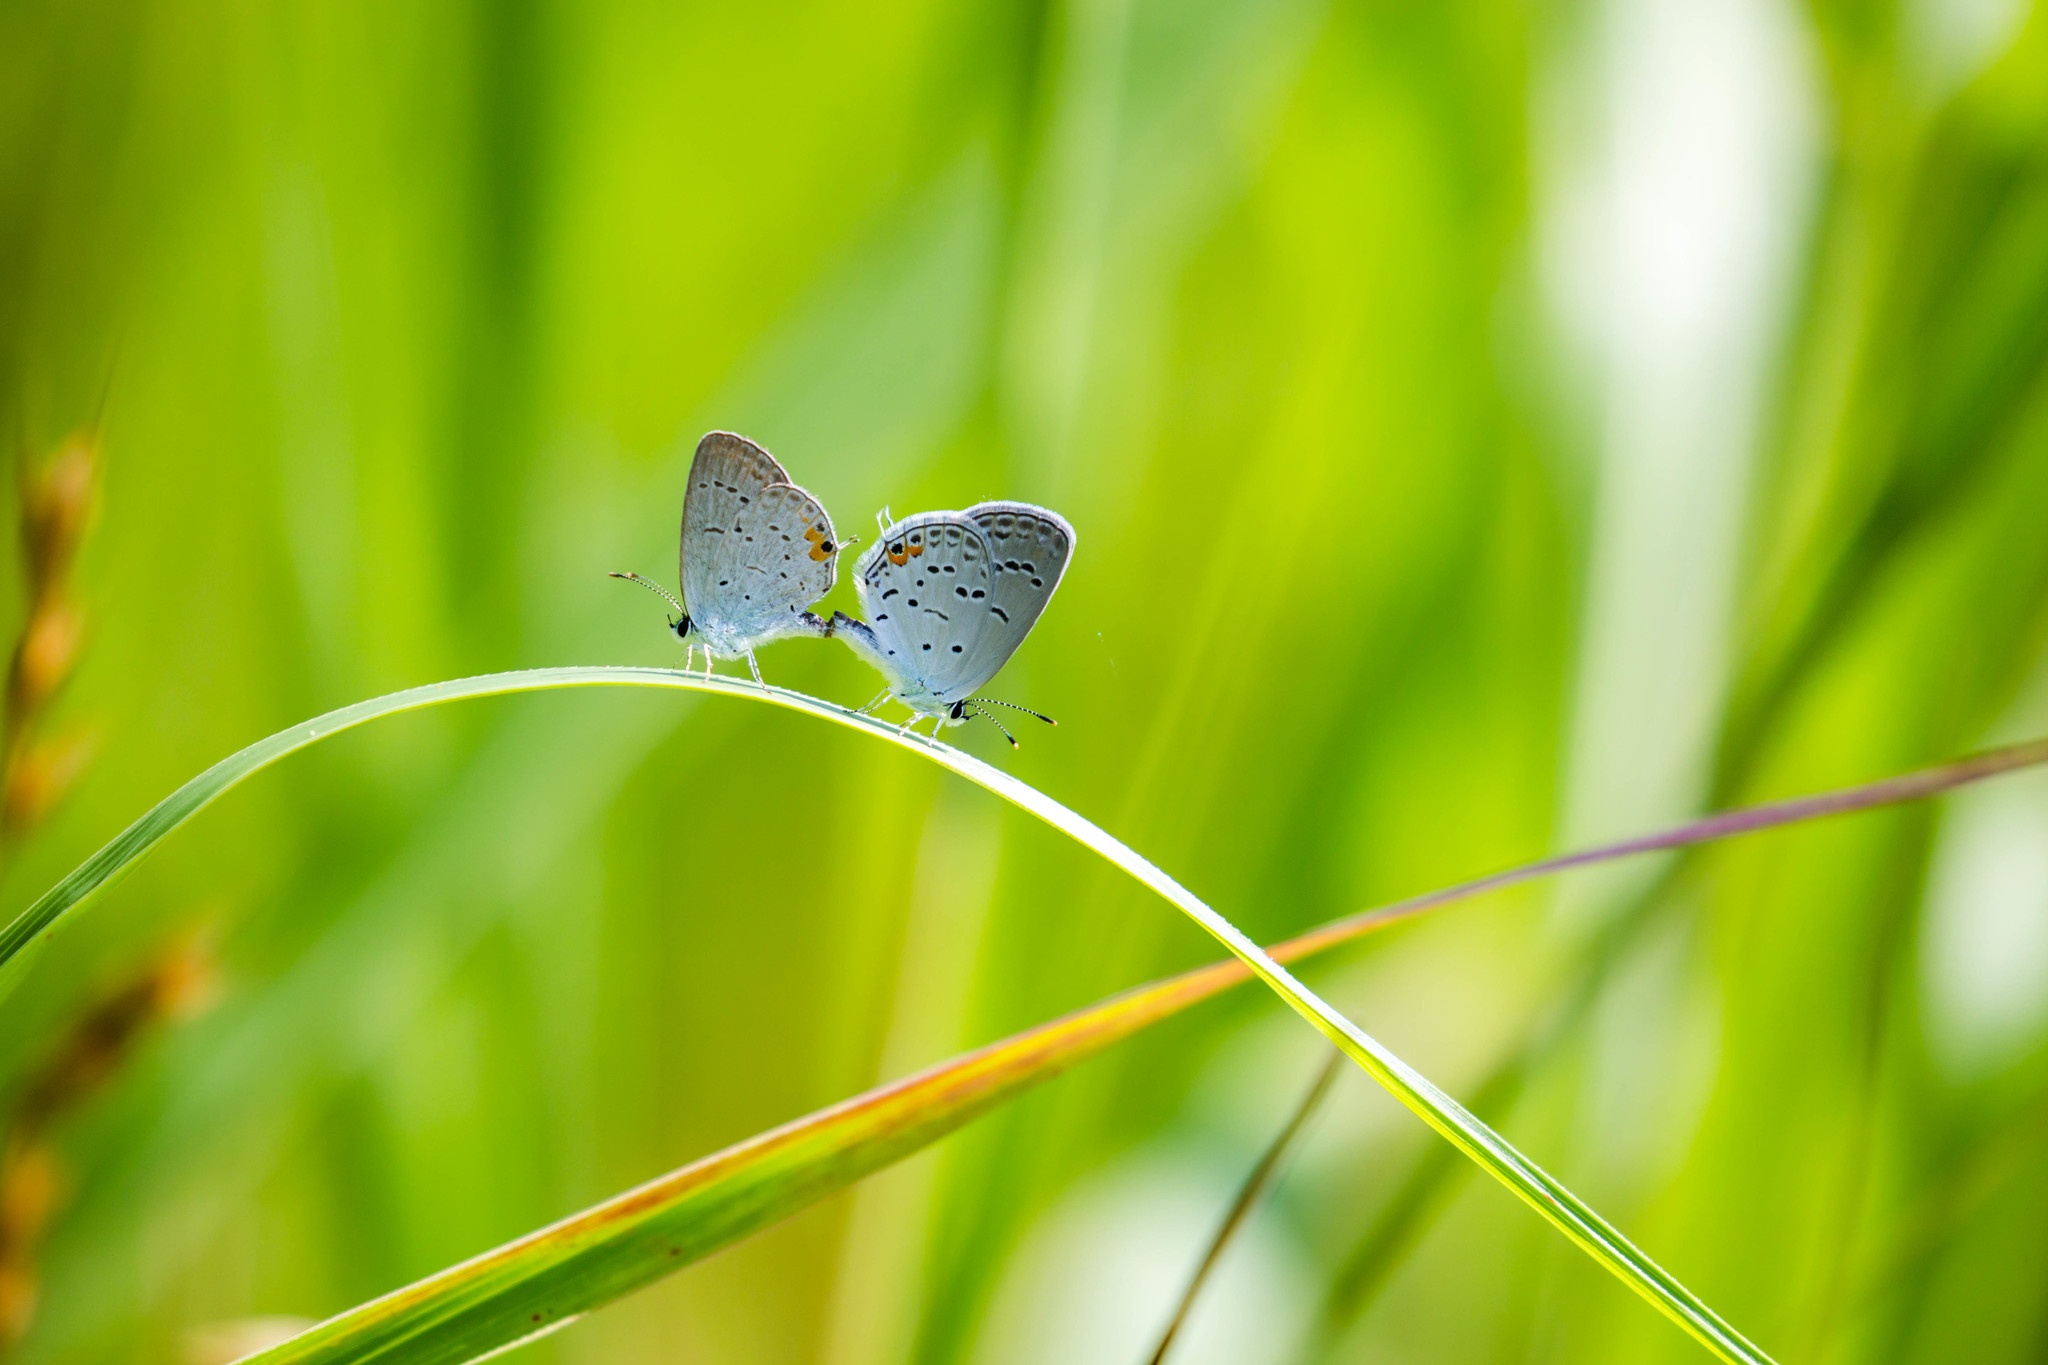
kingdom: Animalia
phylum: Arthropoda
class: Insecta
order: Lepidoptera
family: Lycaenidae
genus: Elkalyce
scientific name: Elkalyce comyntas
